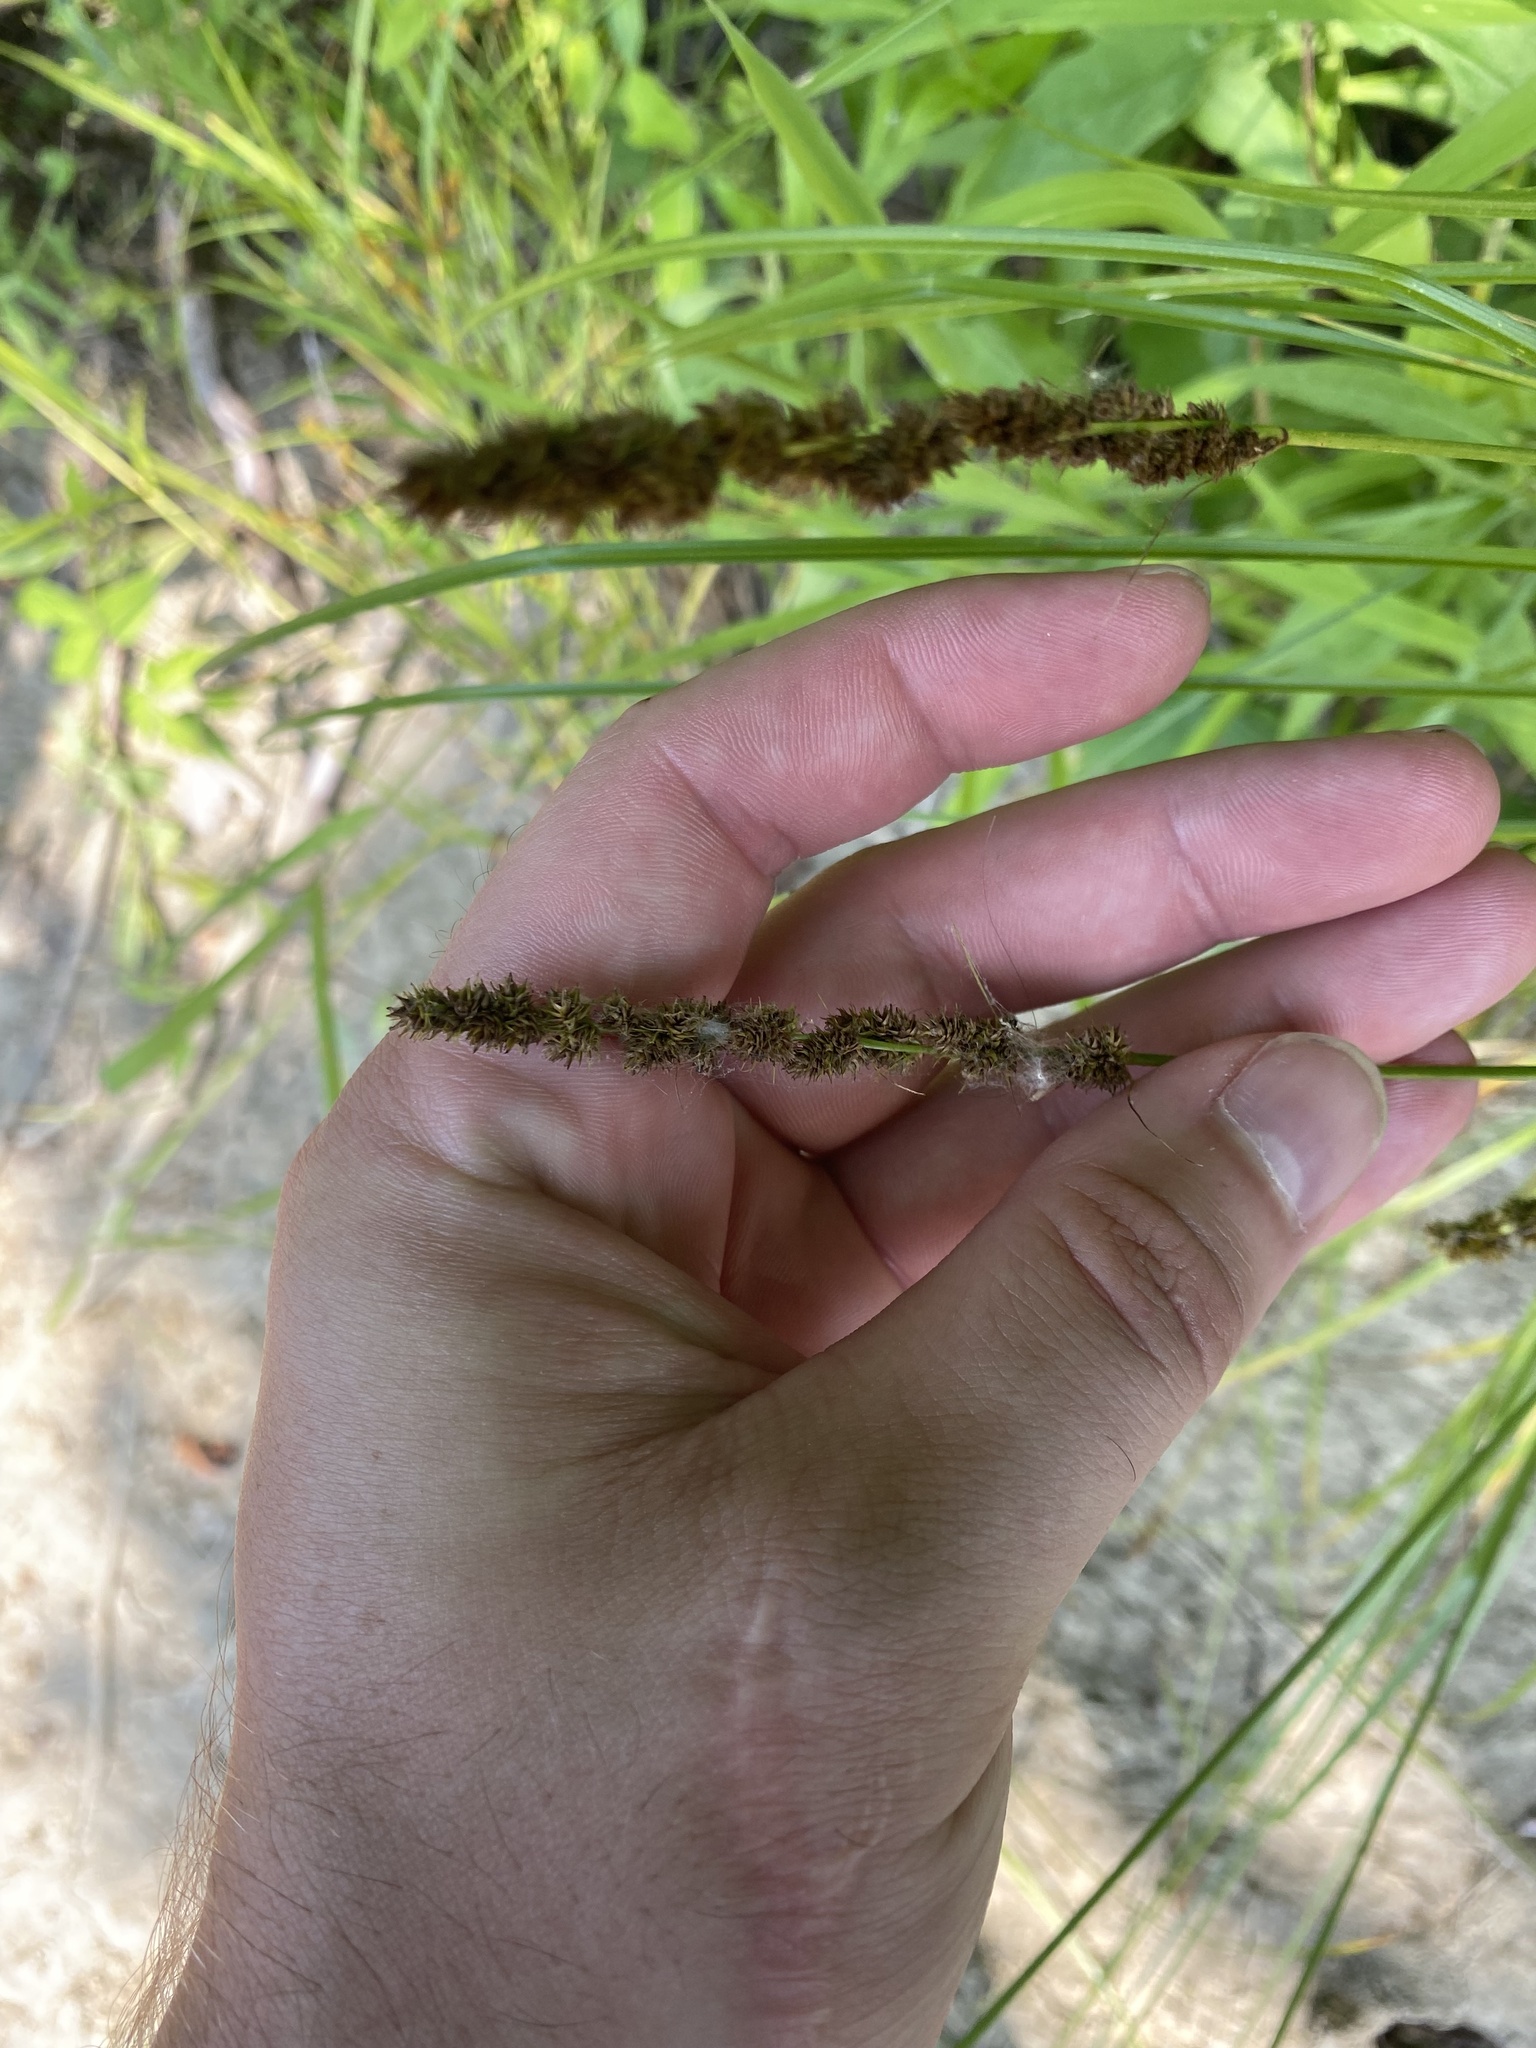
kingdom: Plantae
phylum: Tracheophyta
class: Liliopsida
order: Poales
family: Cyperaceae
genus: Carex
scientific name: Carex annectens
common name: Large fox sedge
